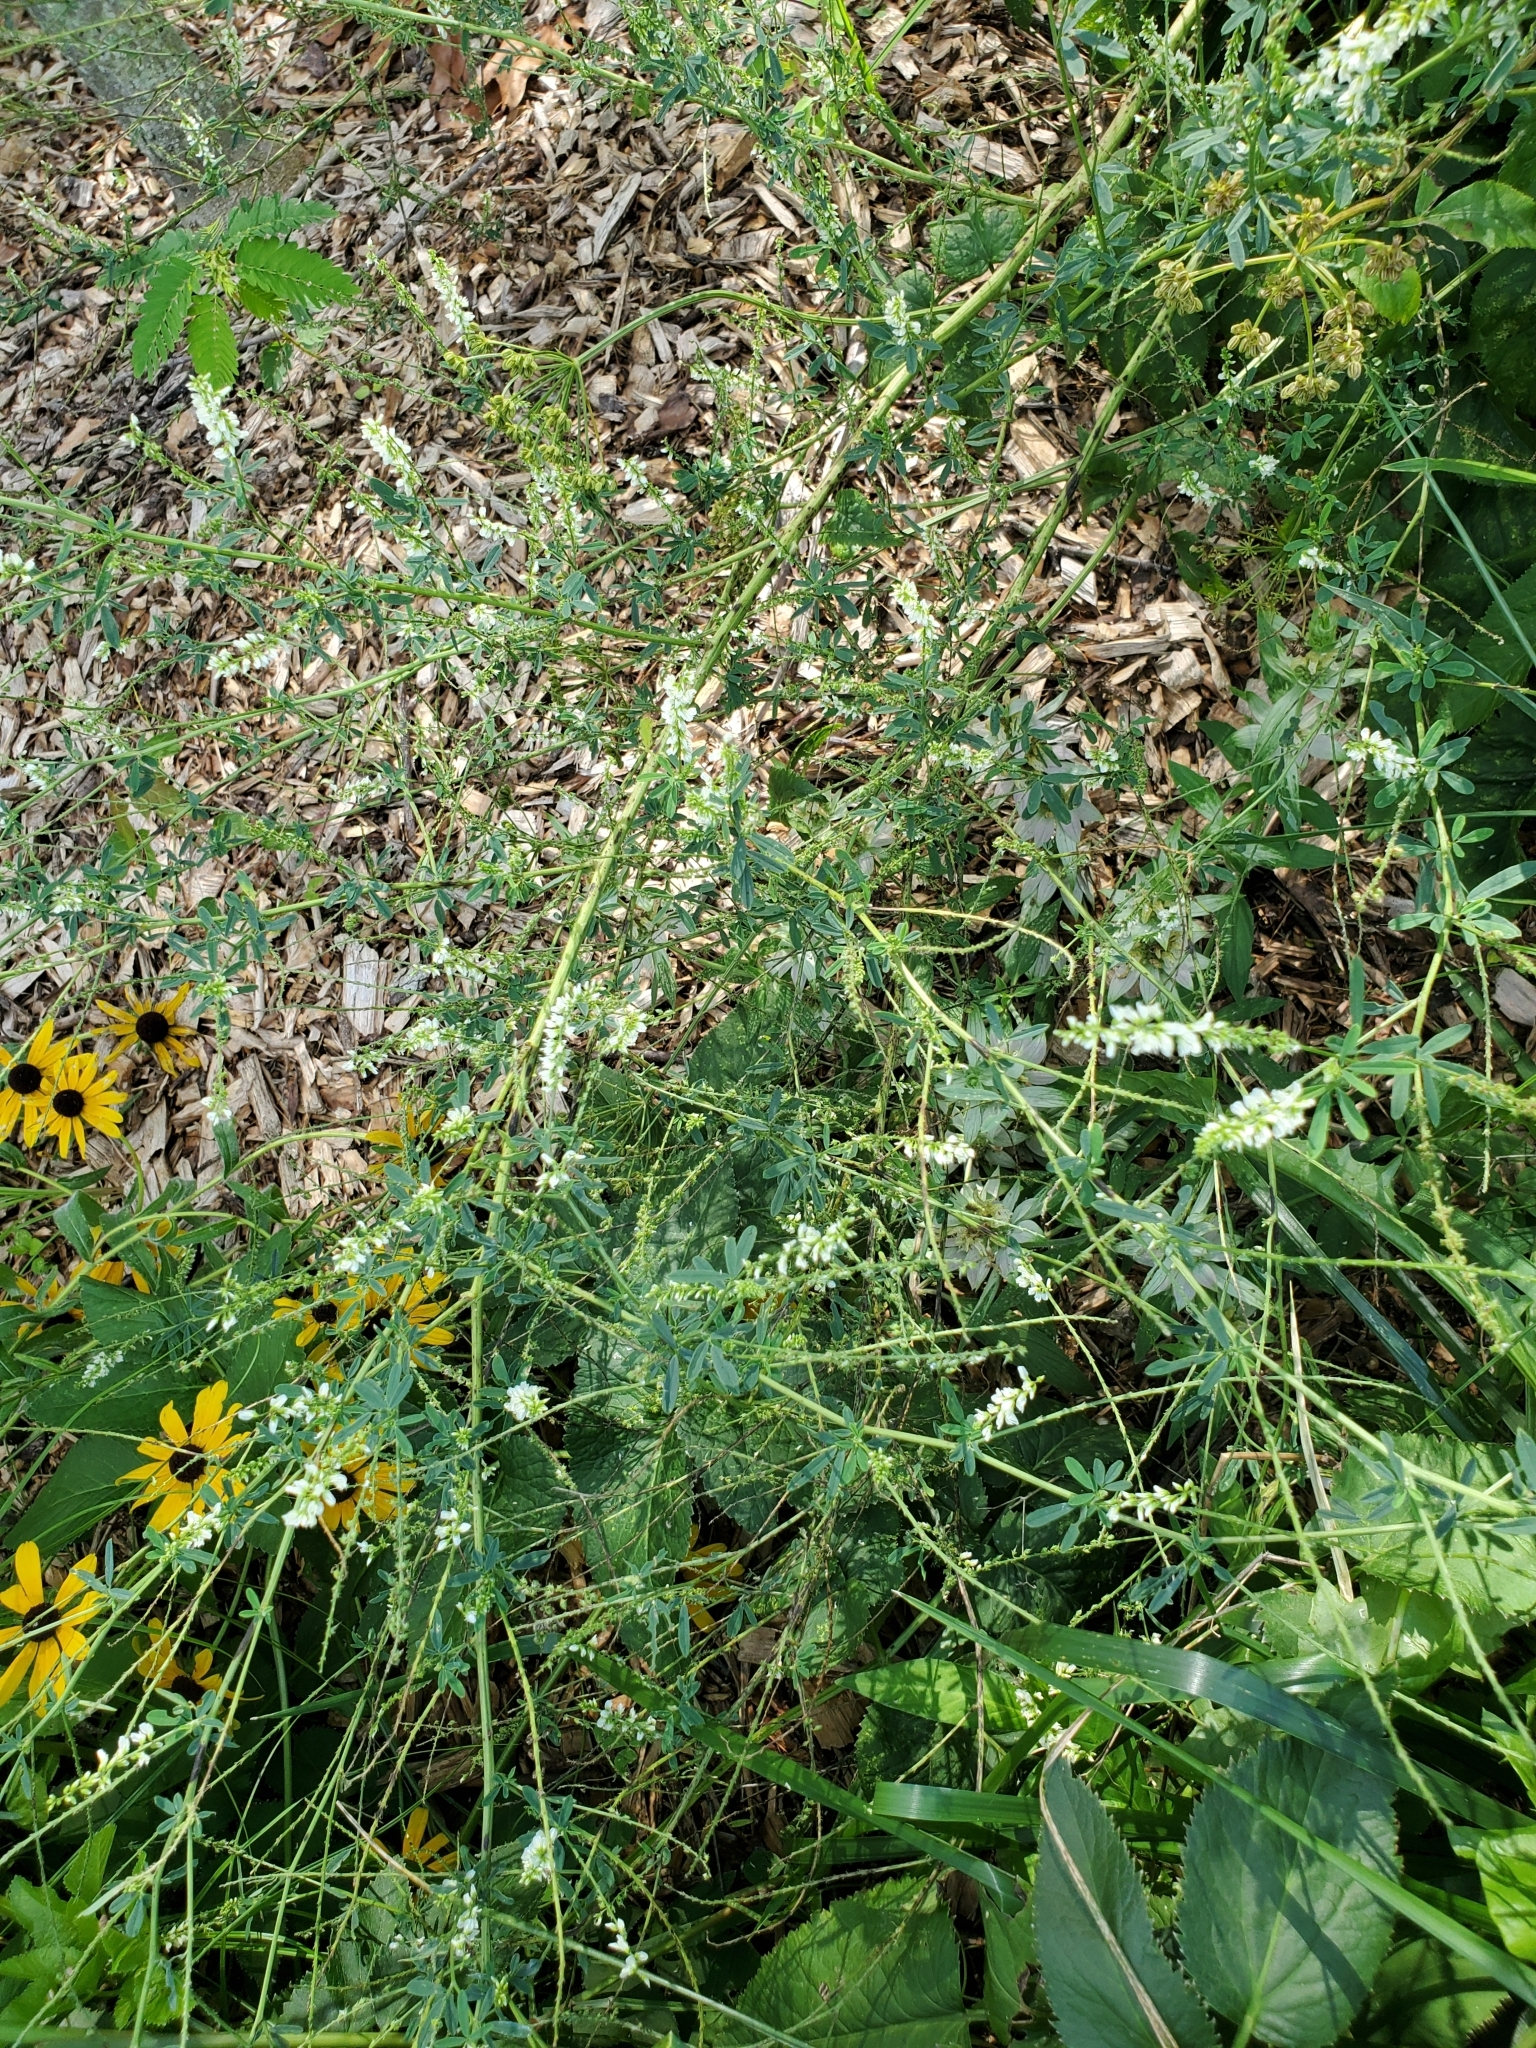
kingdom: Plantae
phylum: Tracheophyta
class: Magnoliopsida
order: Fabales
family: Fabaceae
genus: Melilotus
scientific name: Melilotus albus
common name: White melilot
